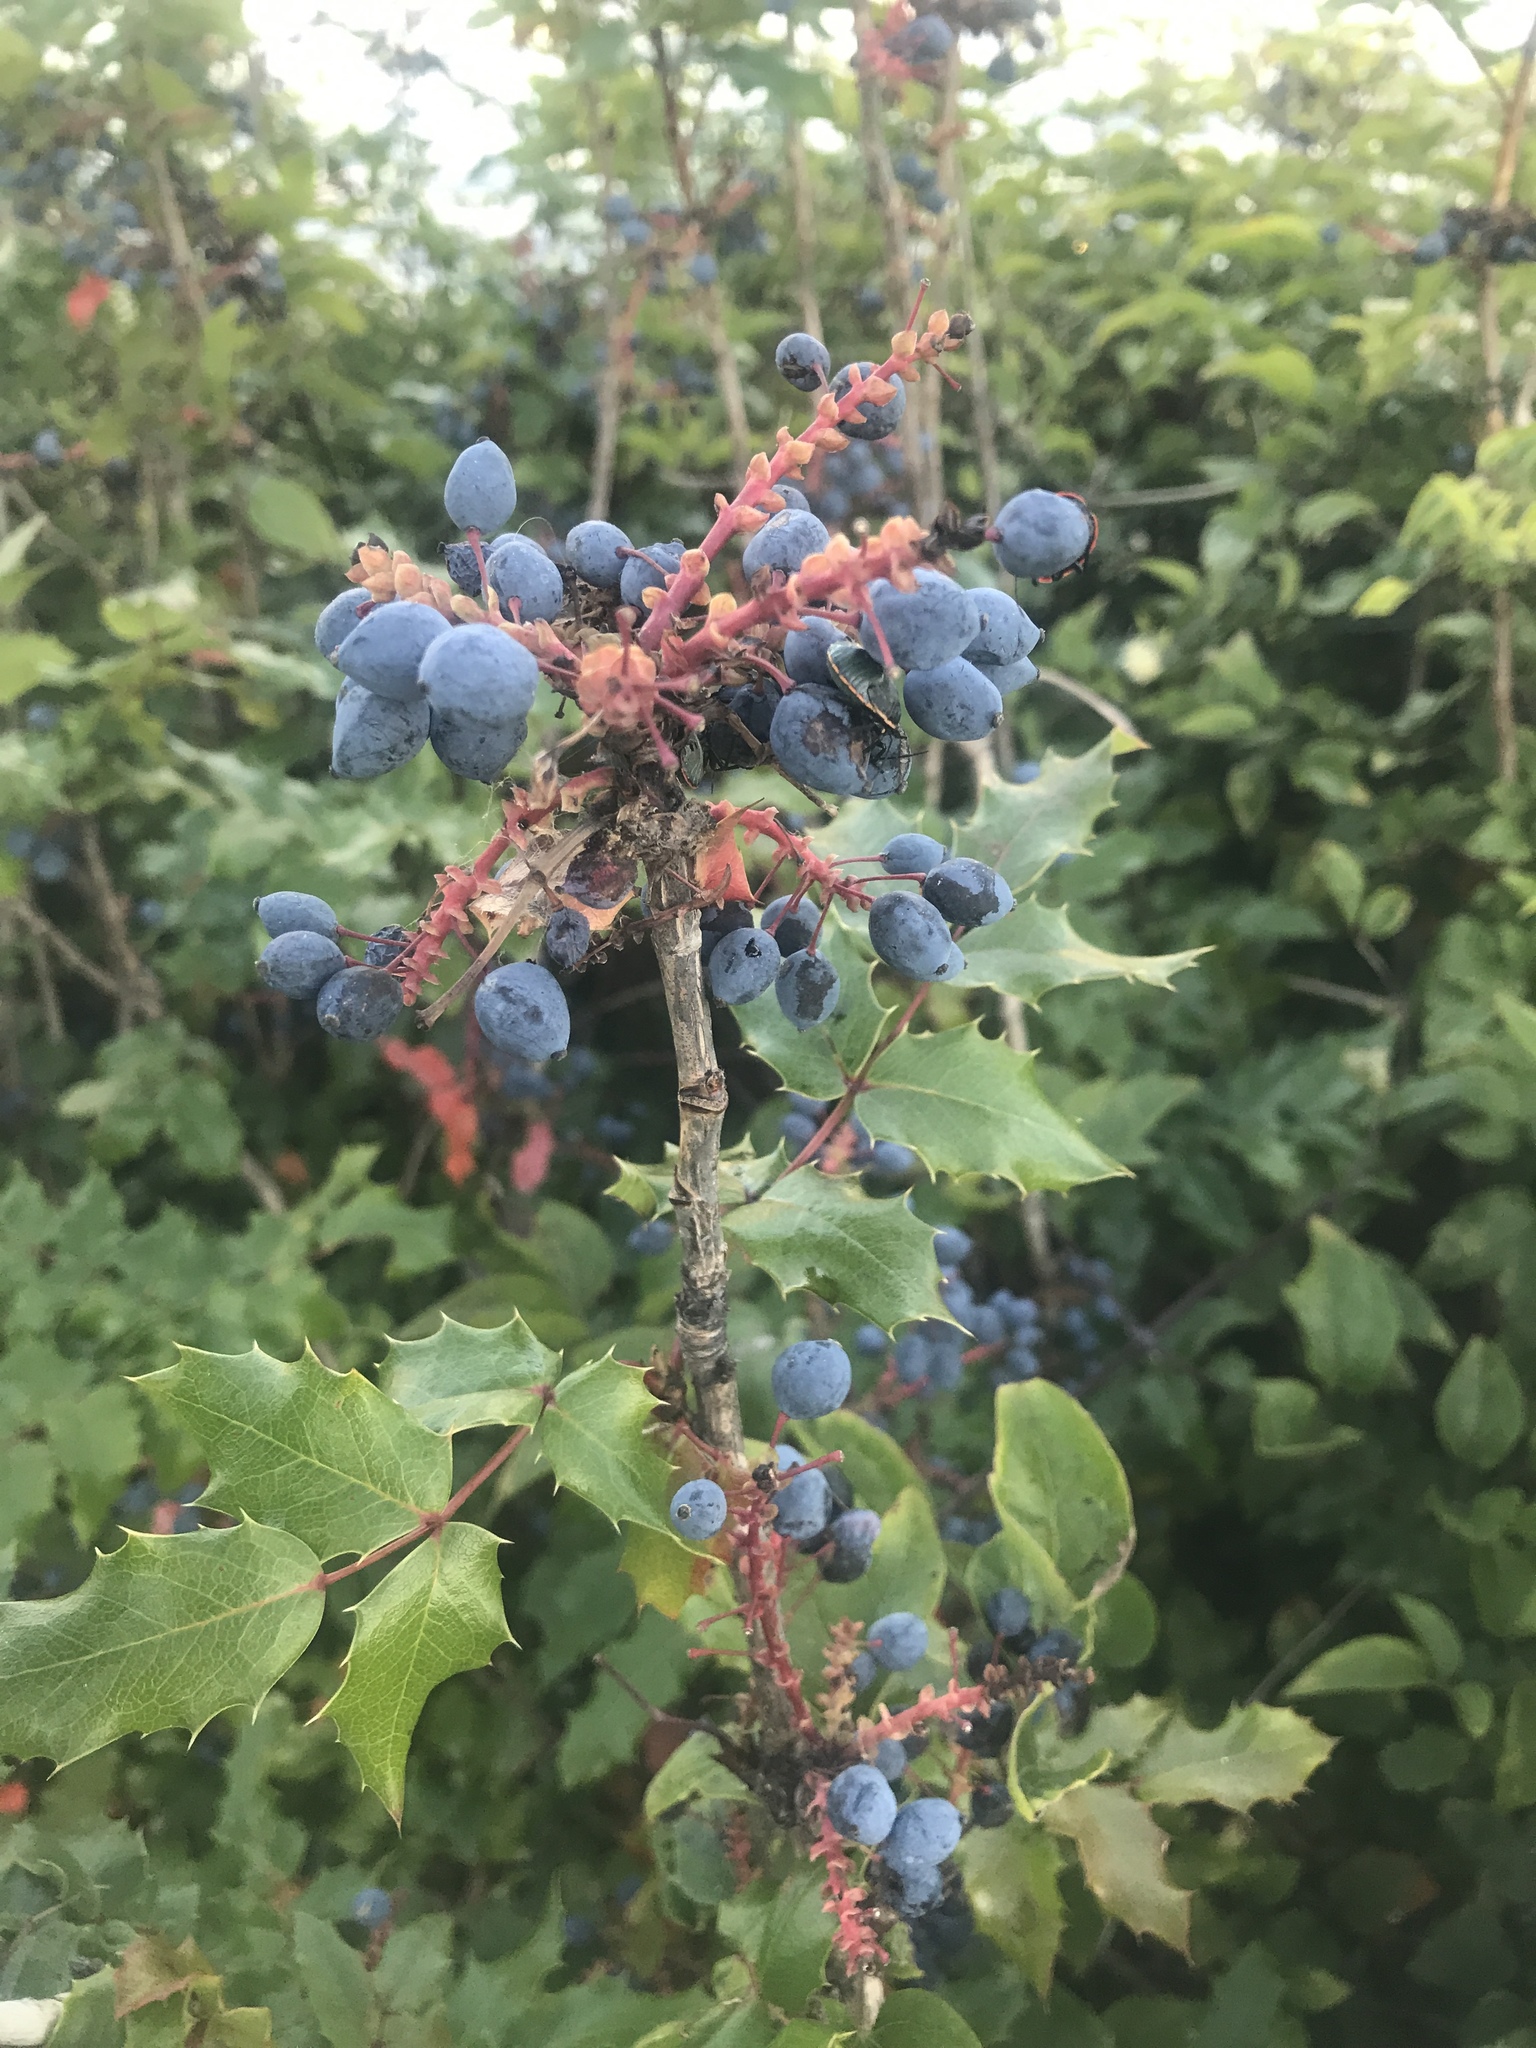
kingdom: Plantae
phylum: Tracheophyta
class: Magnoliopsida
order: Ranunculales
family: Berberidaceae
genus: Mahonia
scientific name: Mahonia aquifolium
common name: Oregon-grape
